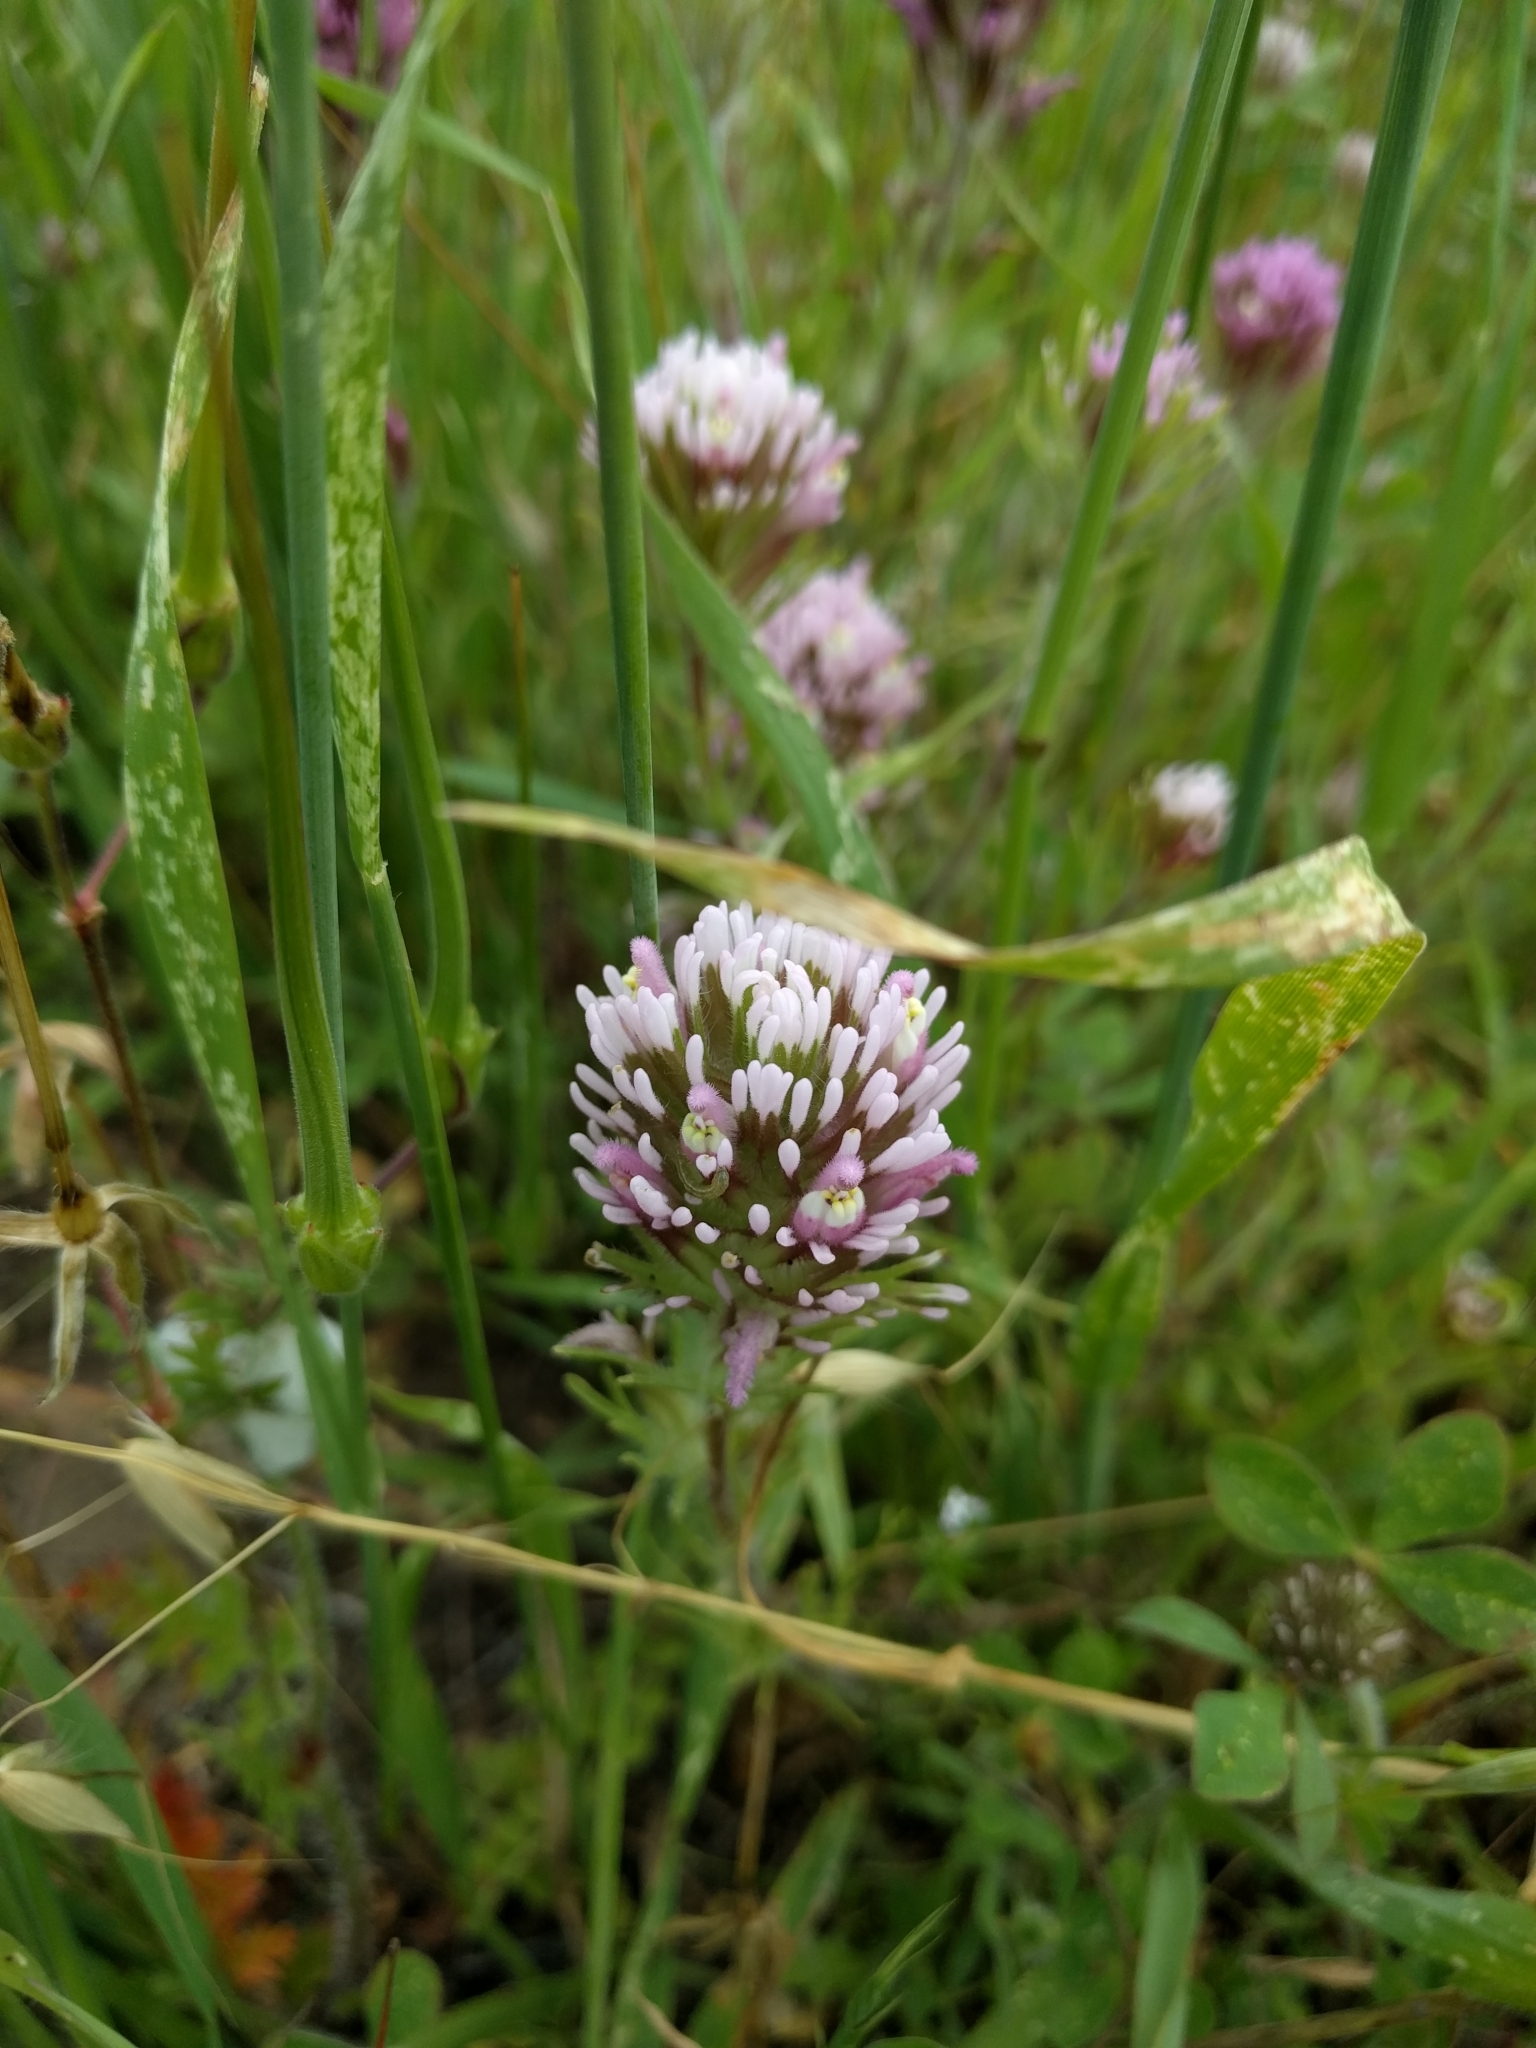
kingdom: Plantae
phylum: Tracheophyta
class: Magnoliopsida
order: Lamiales
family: Orobanchaceae
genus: Castilleja
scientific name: Castilleja exserta
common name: Purple owl-clover
